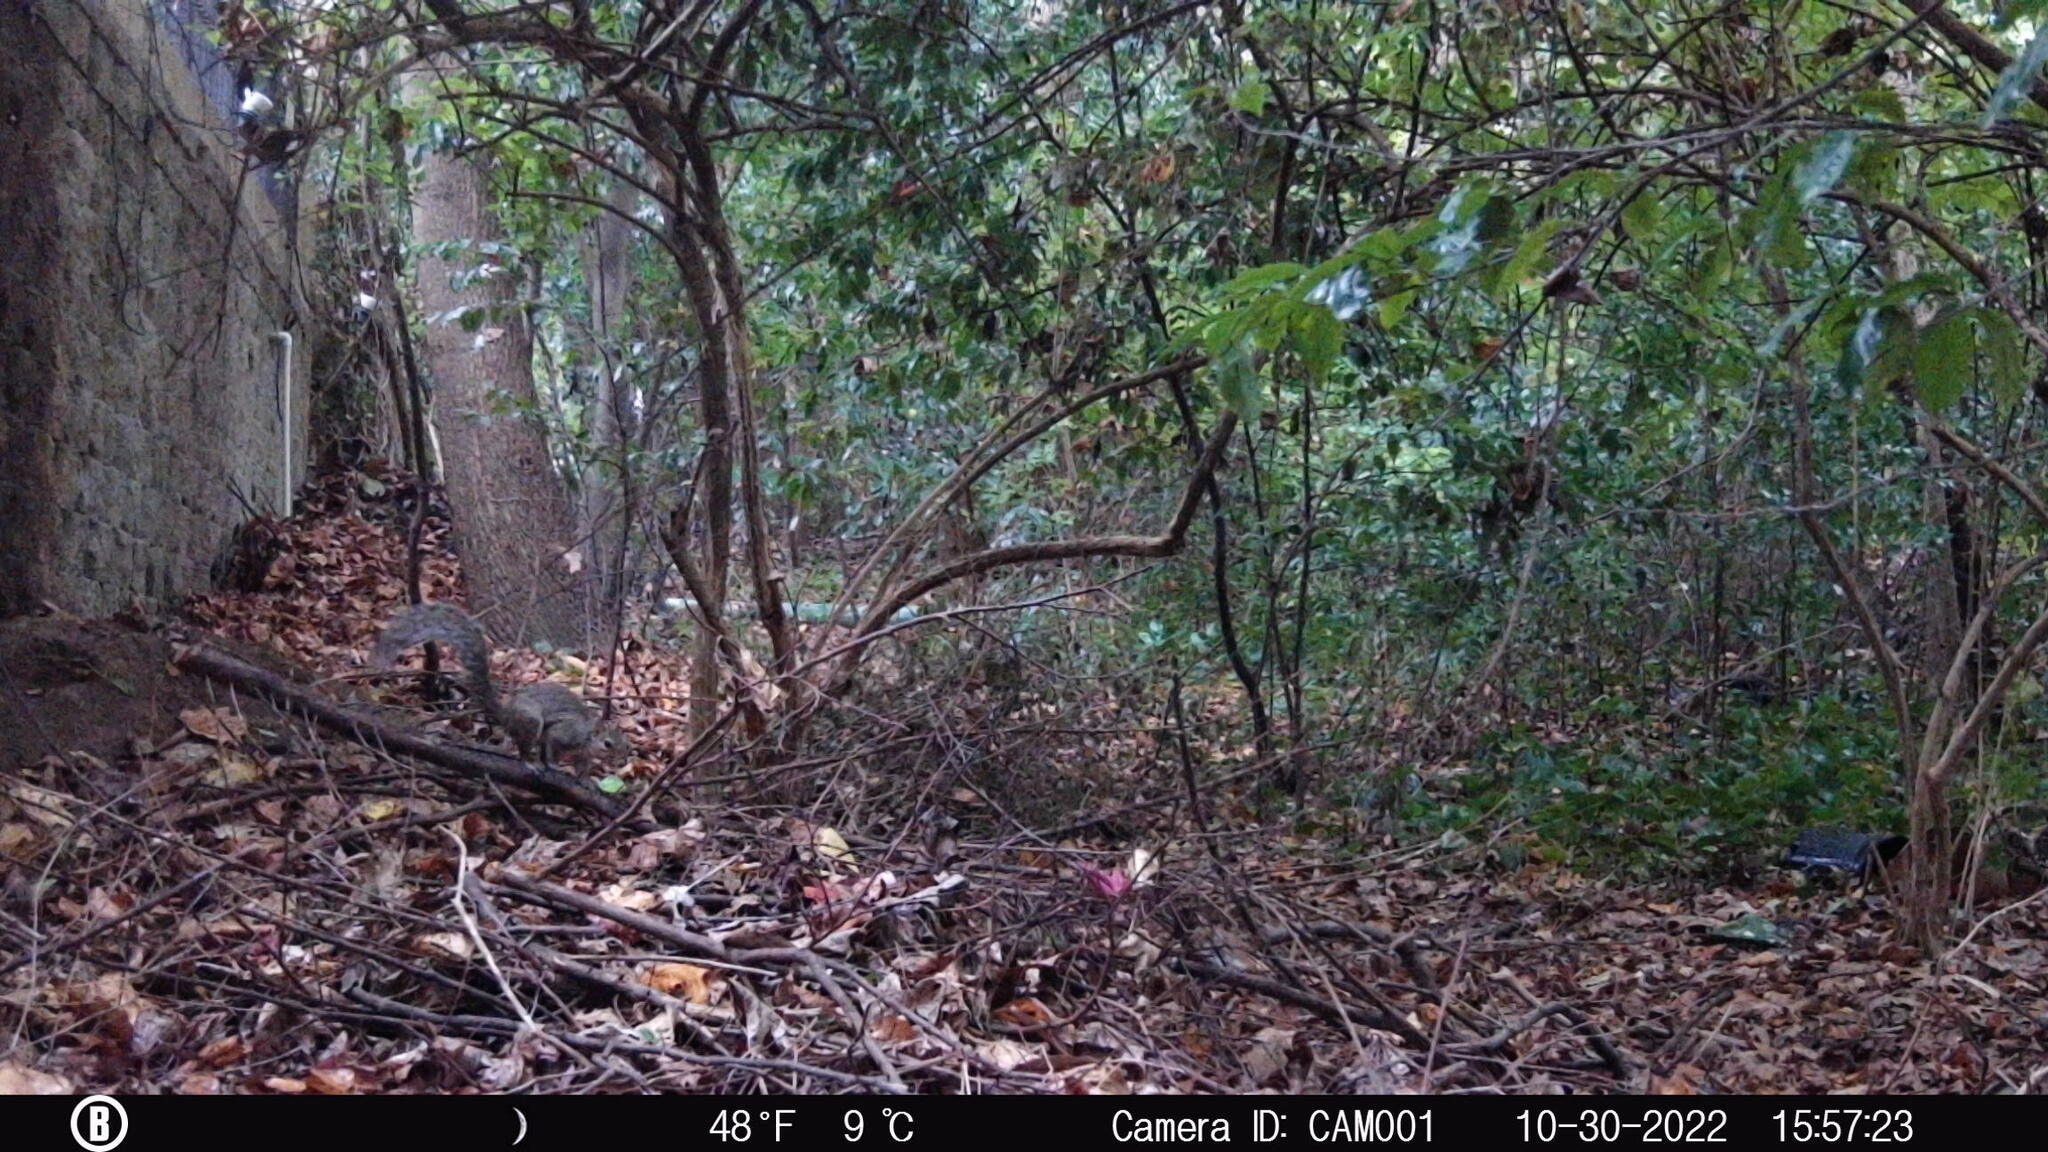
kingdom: Animalia
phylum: Chordata
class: Mammalia
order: Rodentia
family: Sciuridae
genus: Sciurus
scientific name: Sciurus carolinensis
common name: Eastern gray squirrel
